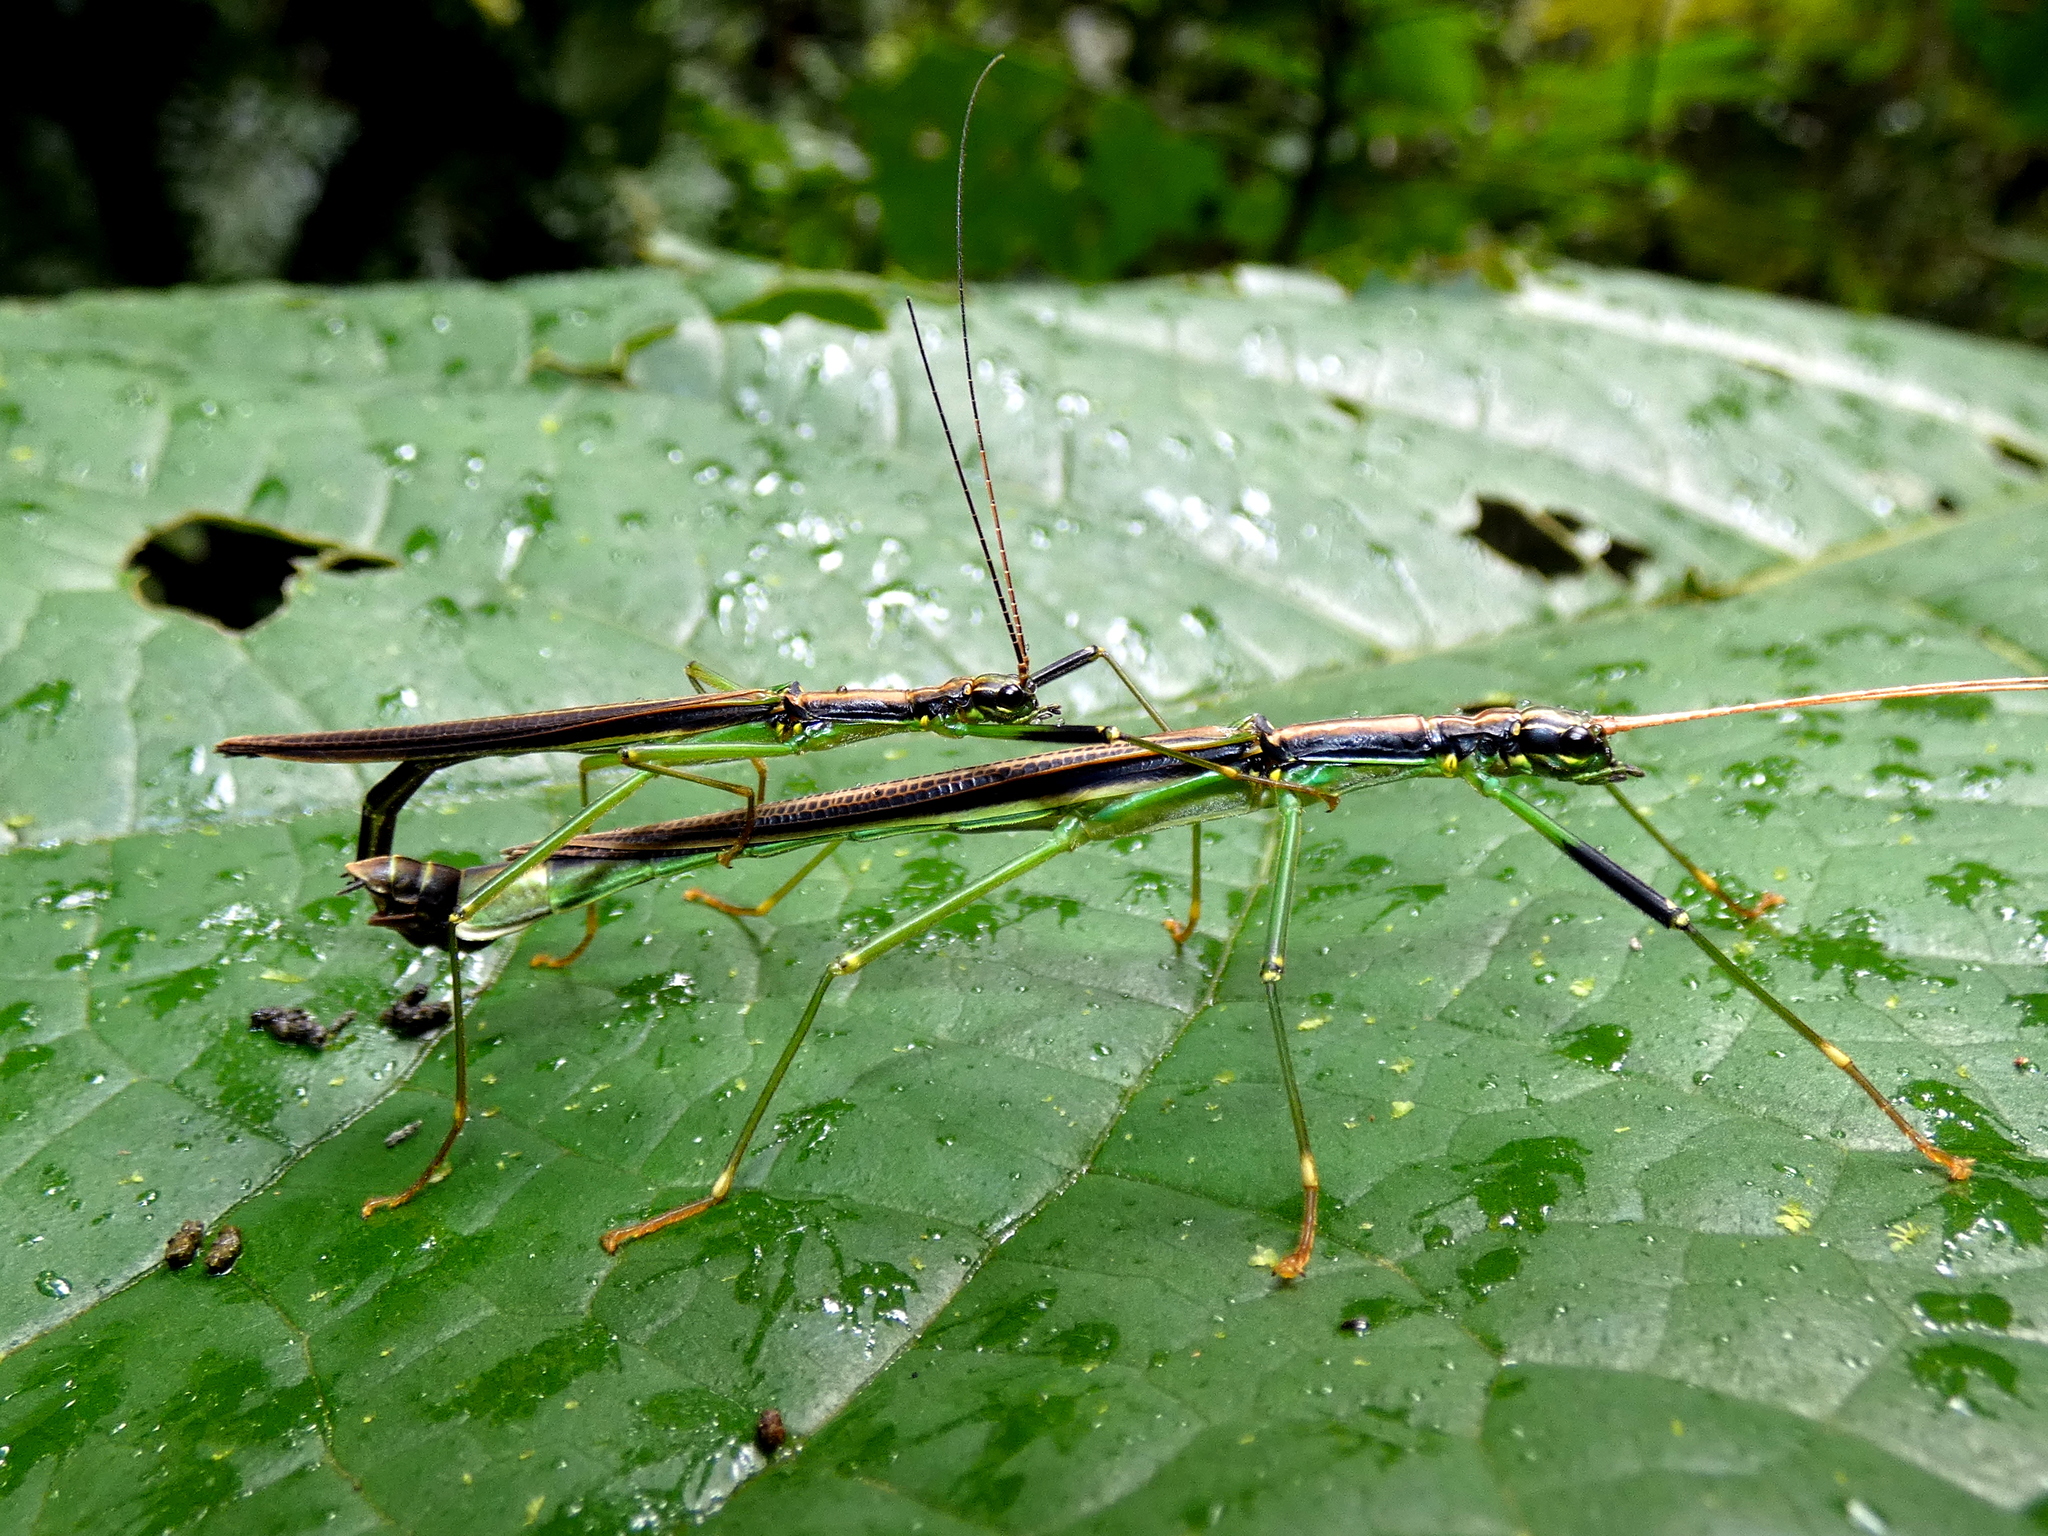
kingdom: Animalia
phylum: Arthropoda
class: Insecta
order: Phasmida
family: Aschiphasmatidae
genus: Parorthomeria
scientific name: Parorthomeria alexis
